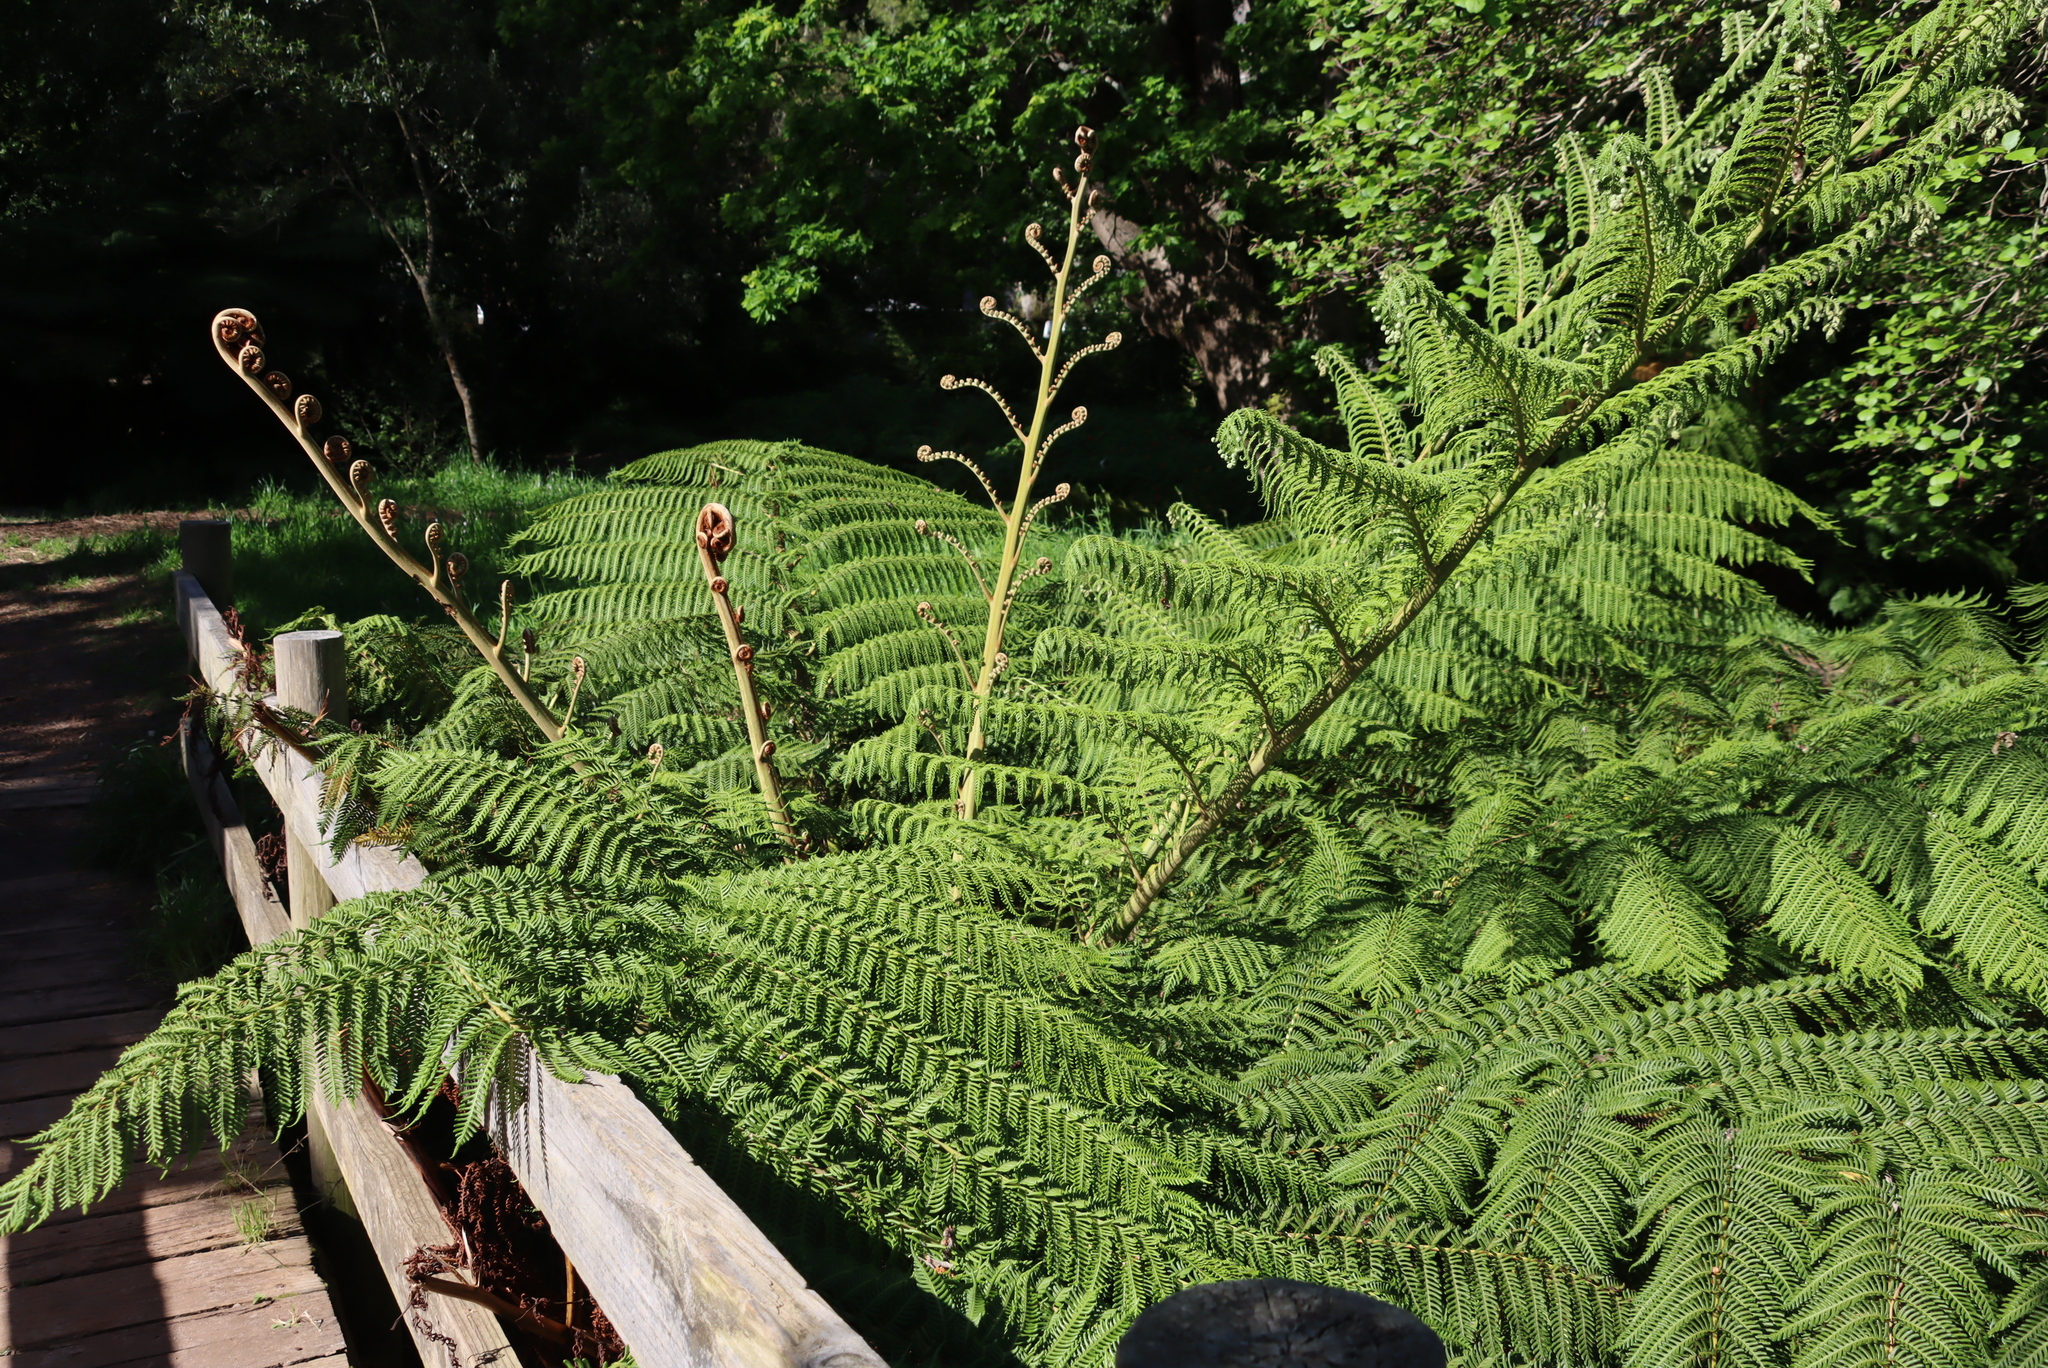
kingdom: Plantae
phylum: Tracheophyta
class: Polypodiopsida
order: Cyatheales
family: Cyatheaceae
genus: Sphaeropteris
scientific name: Sphaeropteris cooperi
